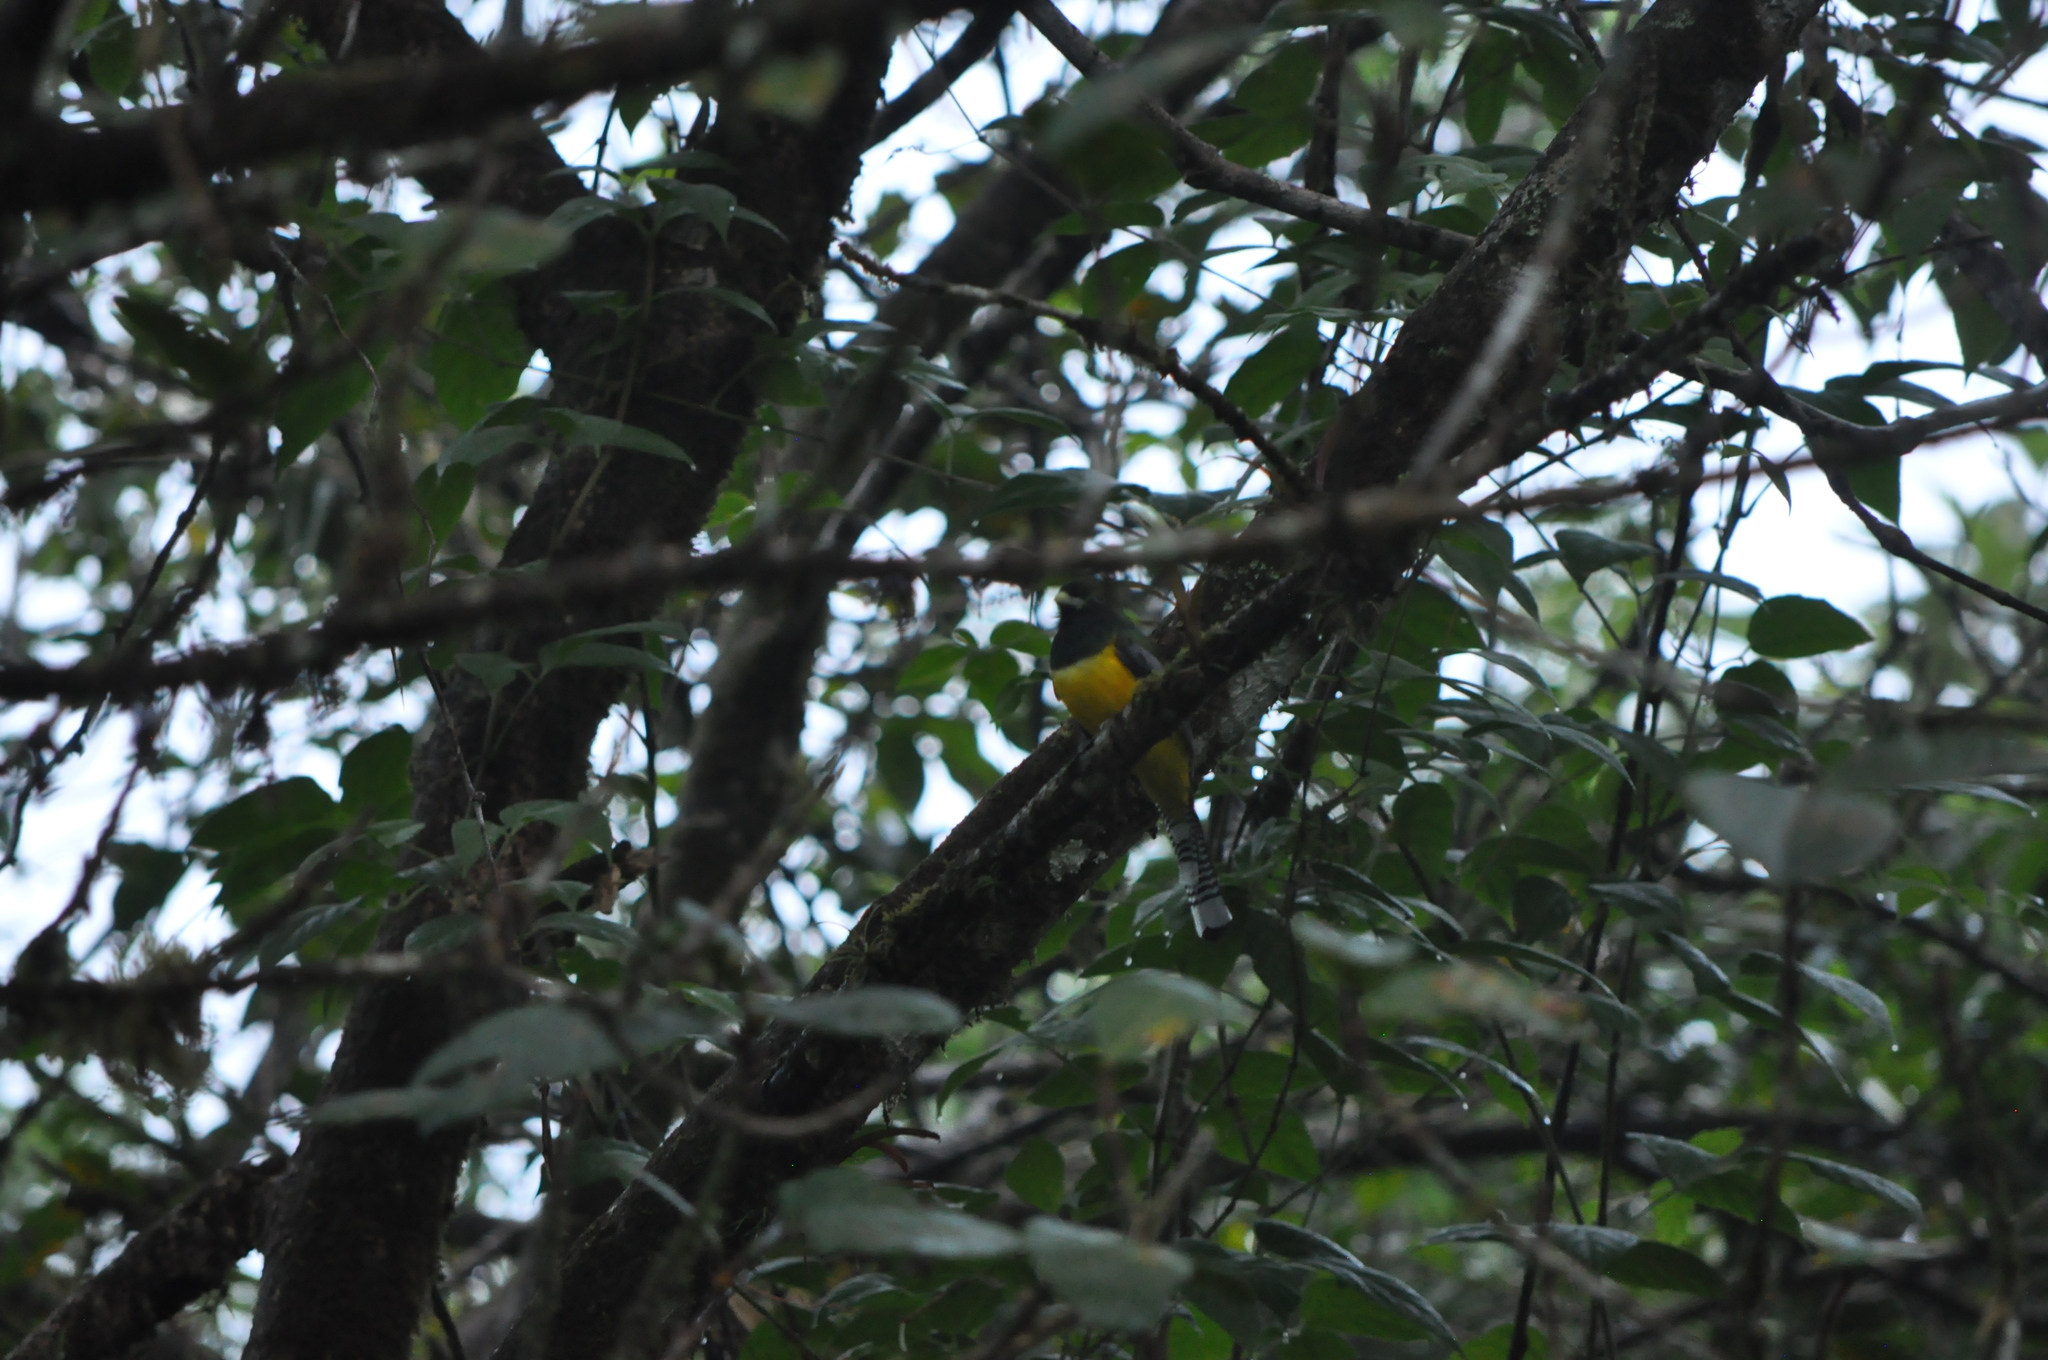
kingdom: Animalia
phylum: Chordata
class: Aves
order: Trogoniformes
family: Trogonidae
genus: Trogon
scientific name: Trogon rufus
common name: Black-throated trogon
